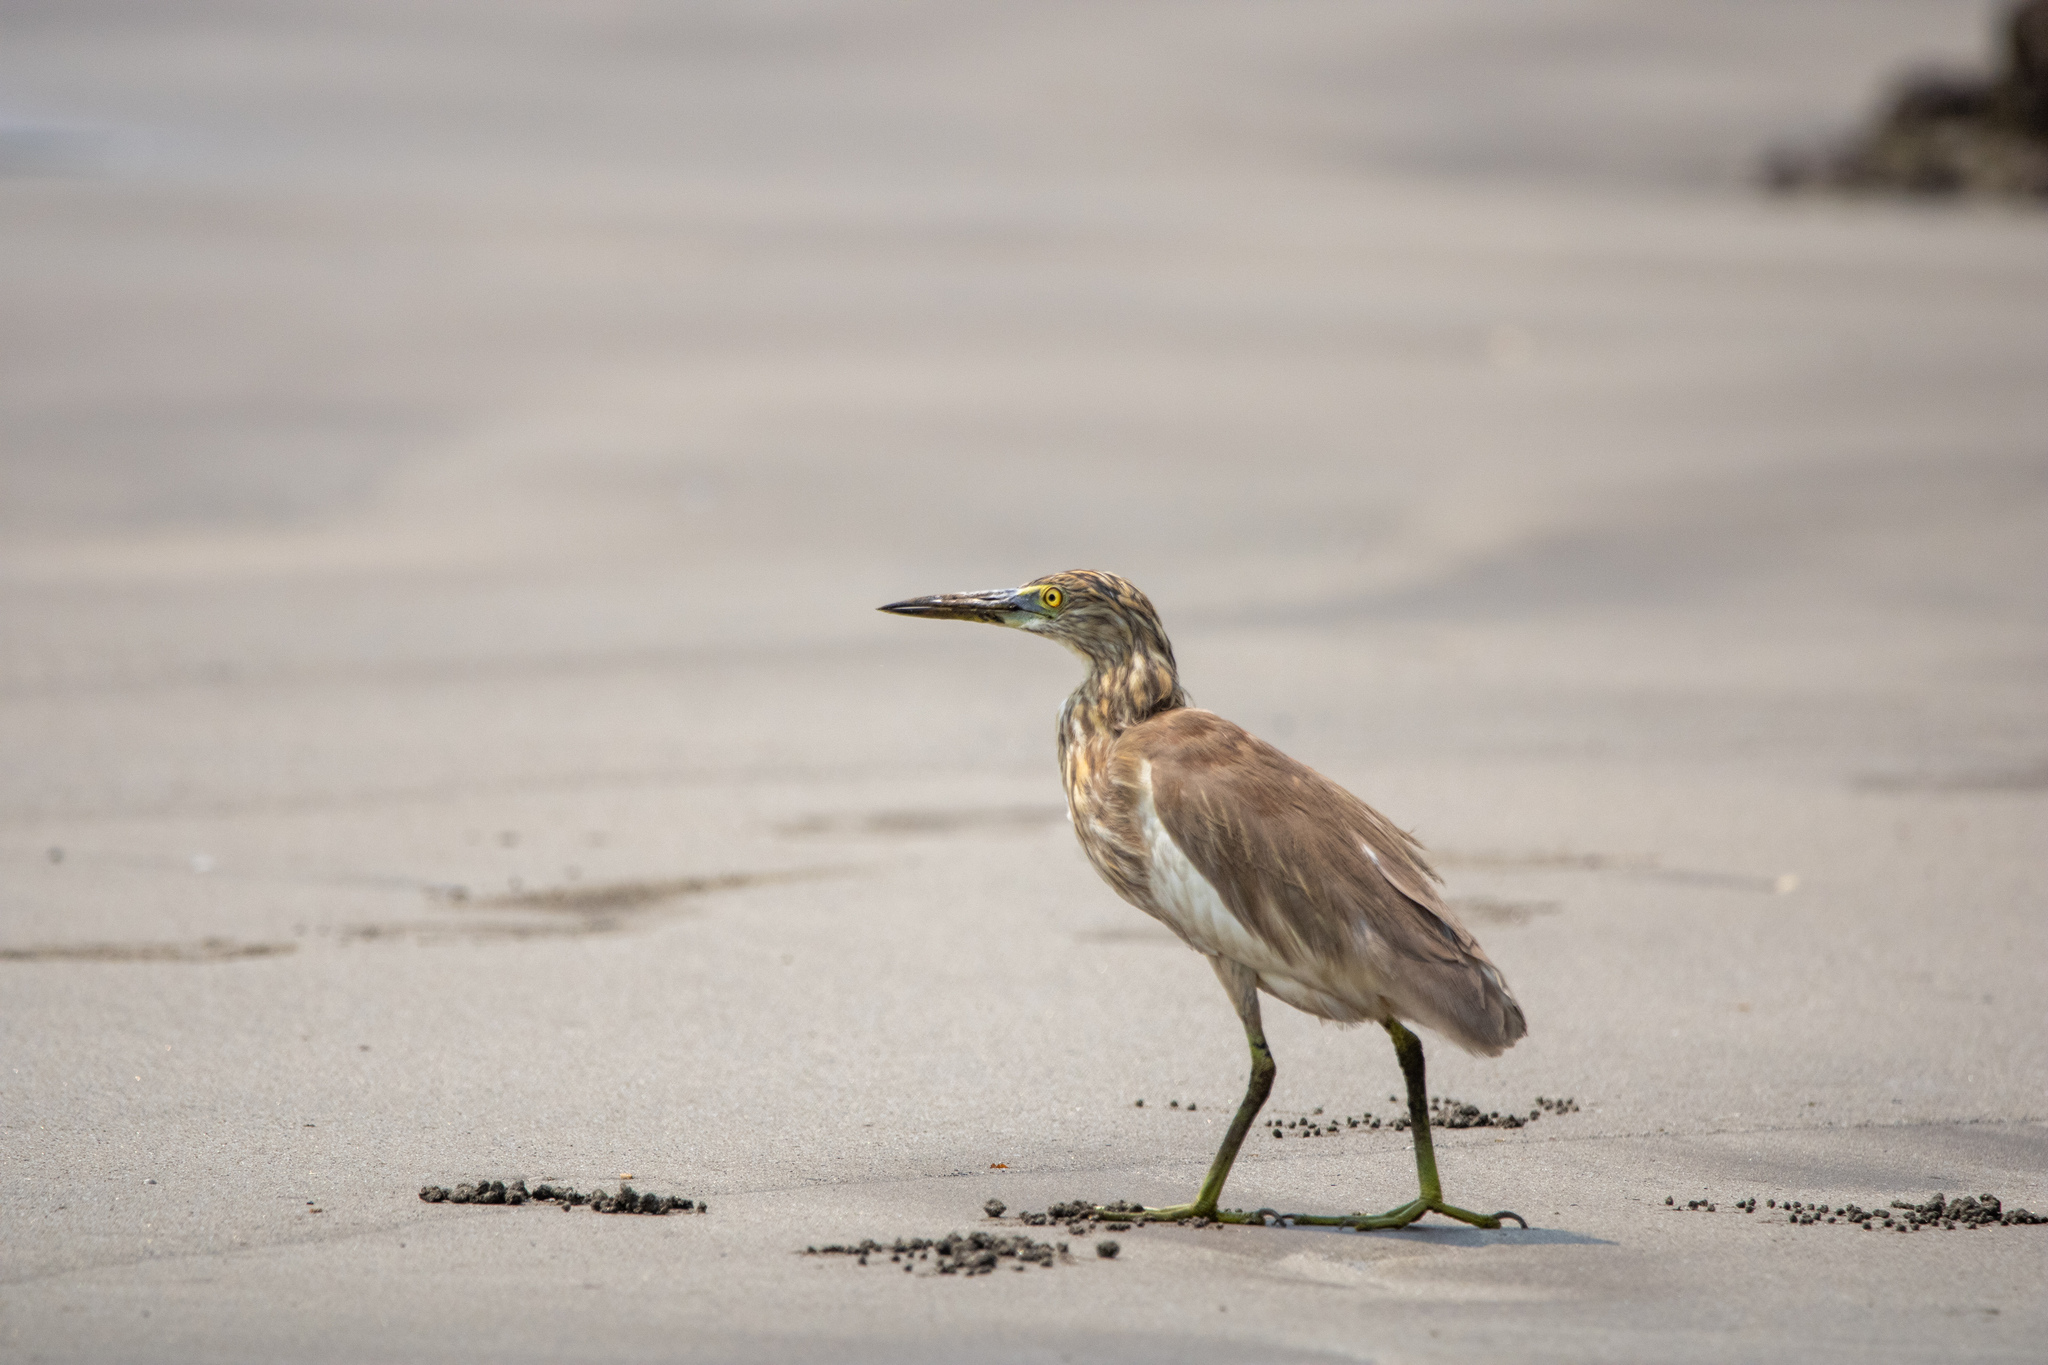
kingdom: Animalia
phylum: Chordata
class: Aves
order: Pelecaniformes
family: Ardeidae
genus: Ardeola
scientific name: Ardeola grayii
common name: Indian pond heron
